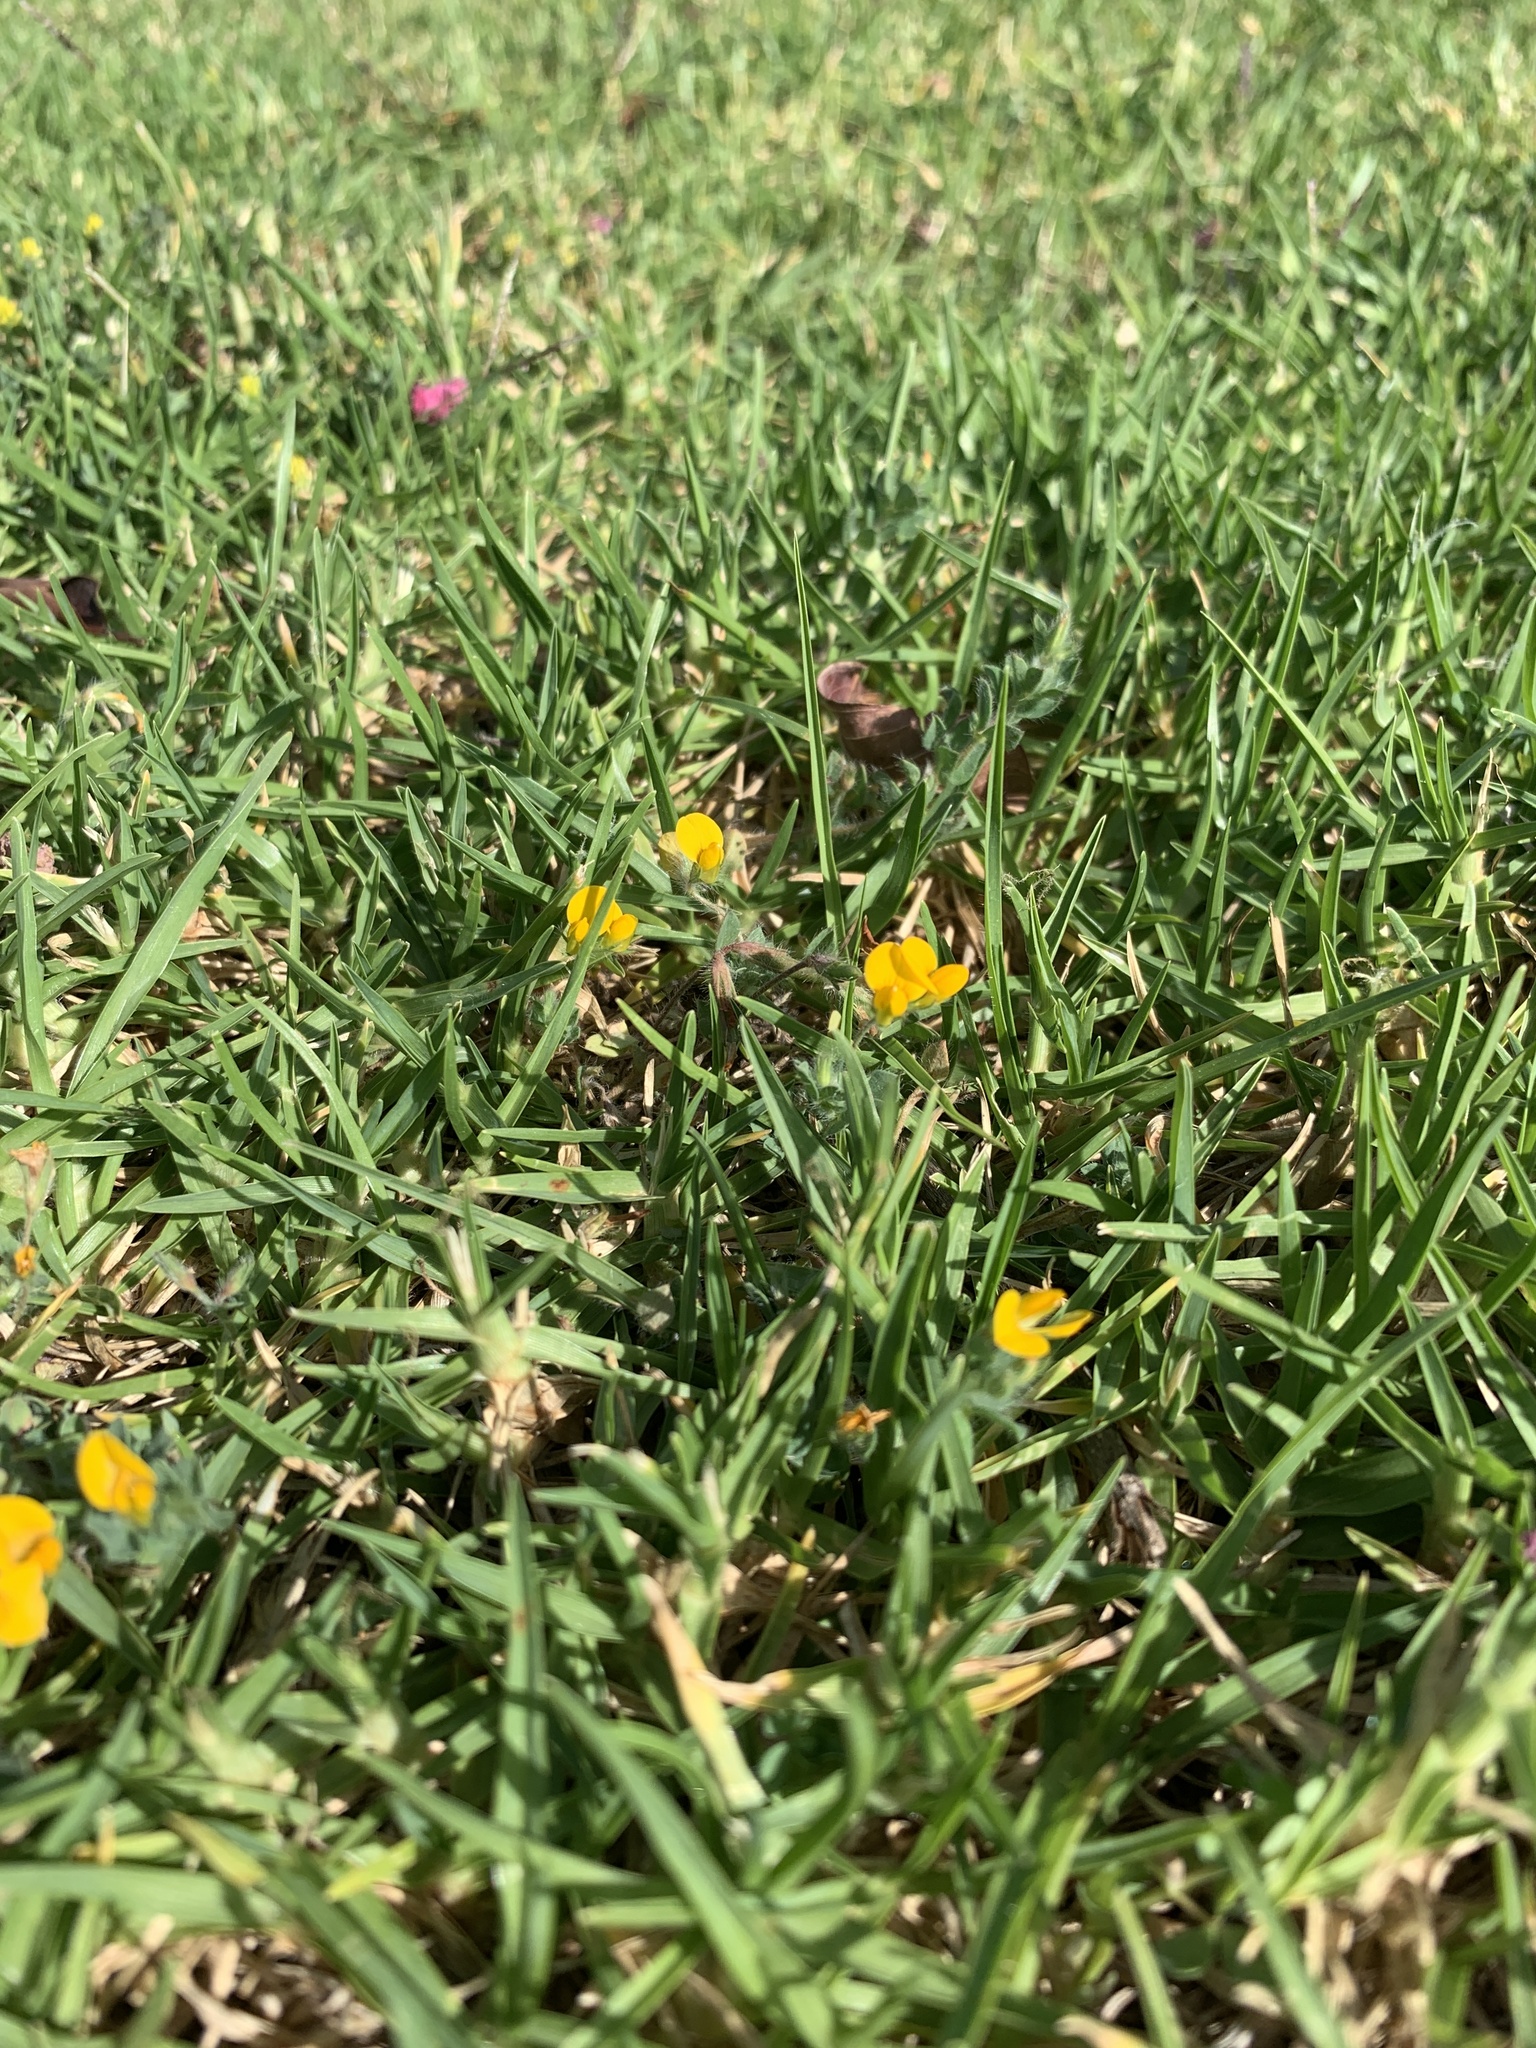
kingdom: Plantae
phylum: Tracheophyta
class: Magnoliopsida
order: Fabales
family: Fabaceae
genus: Lotus
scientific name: Lotus subbiflorus
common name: Hairy bird's-foot trefoil
